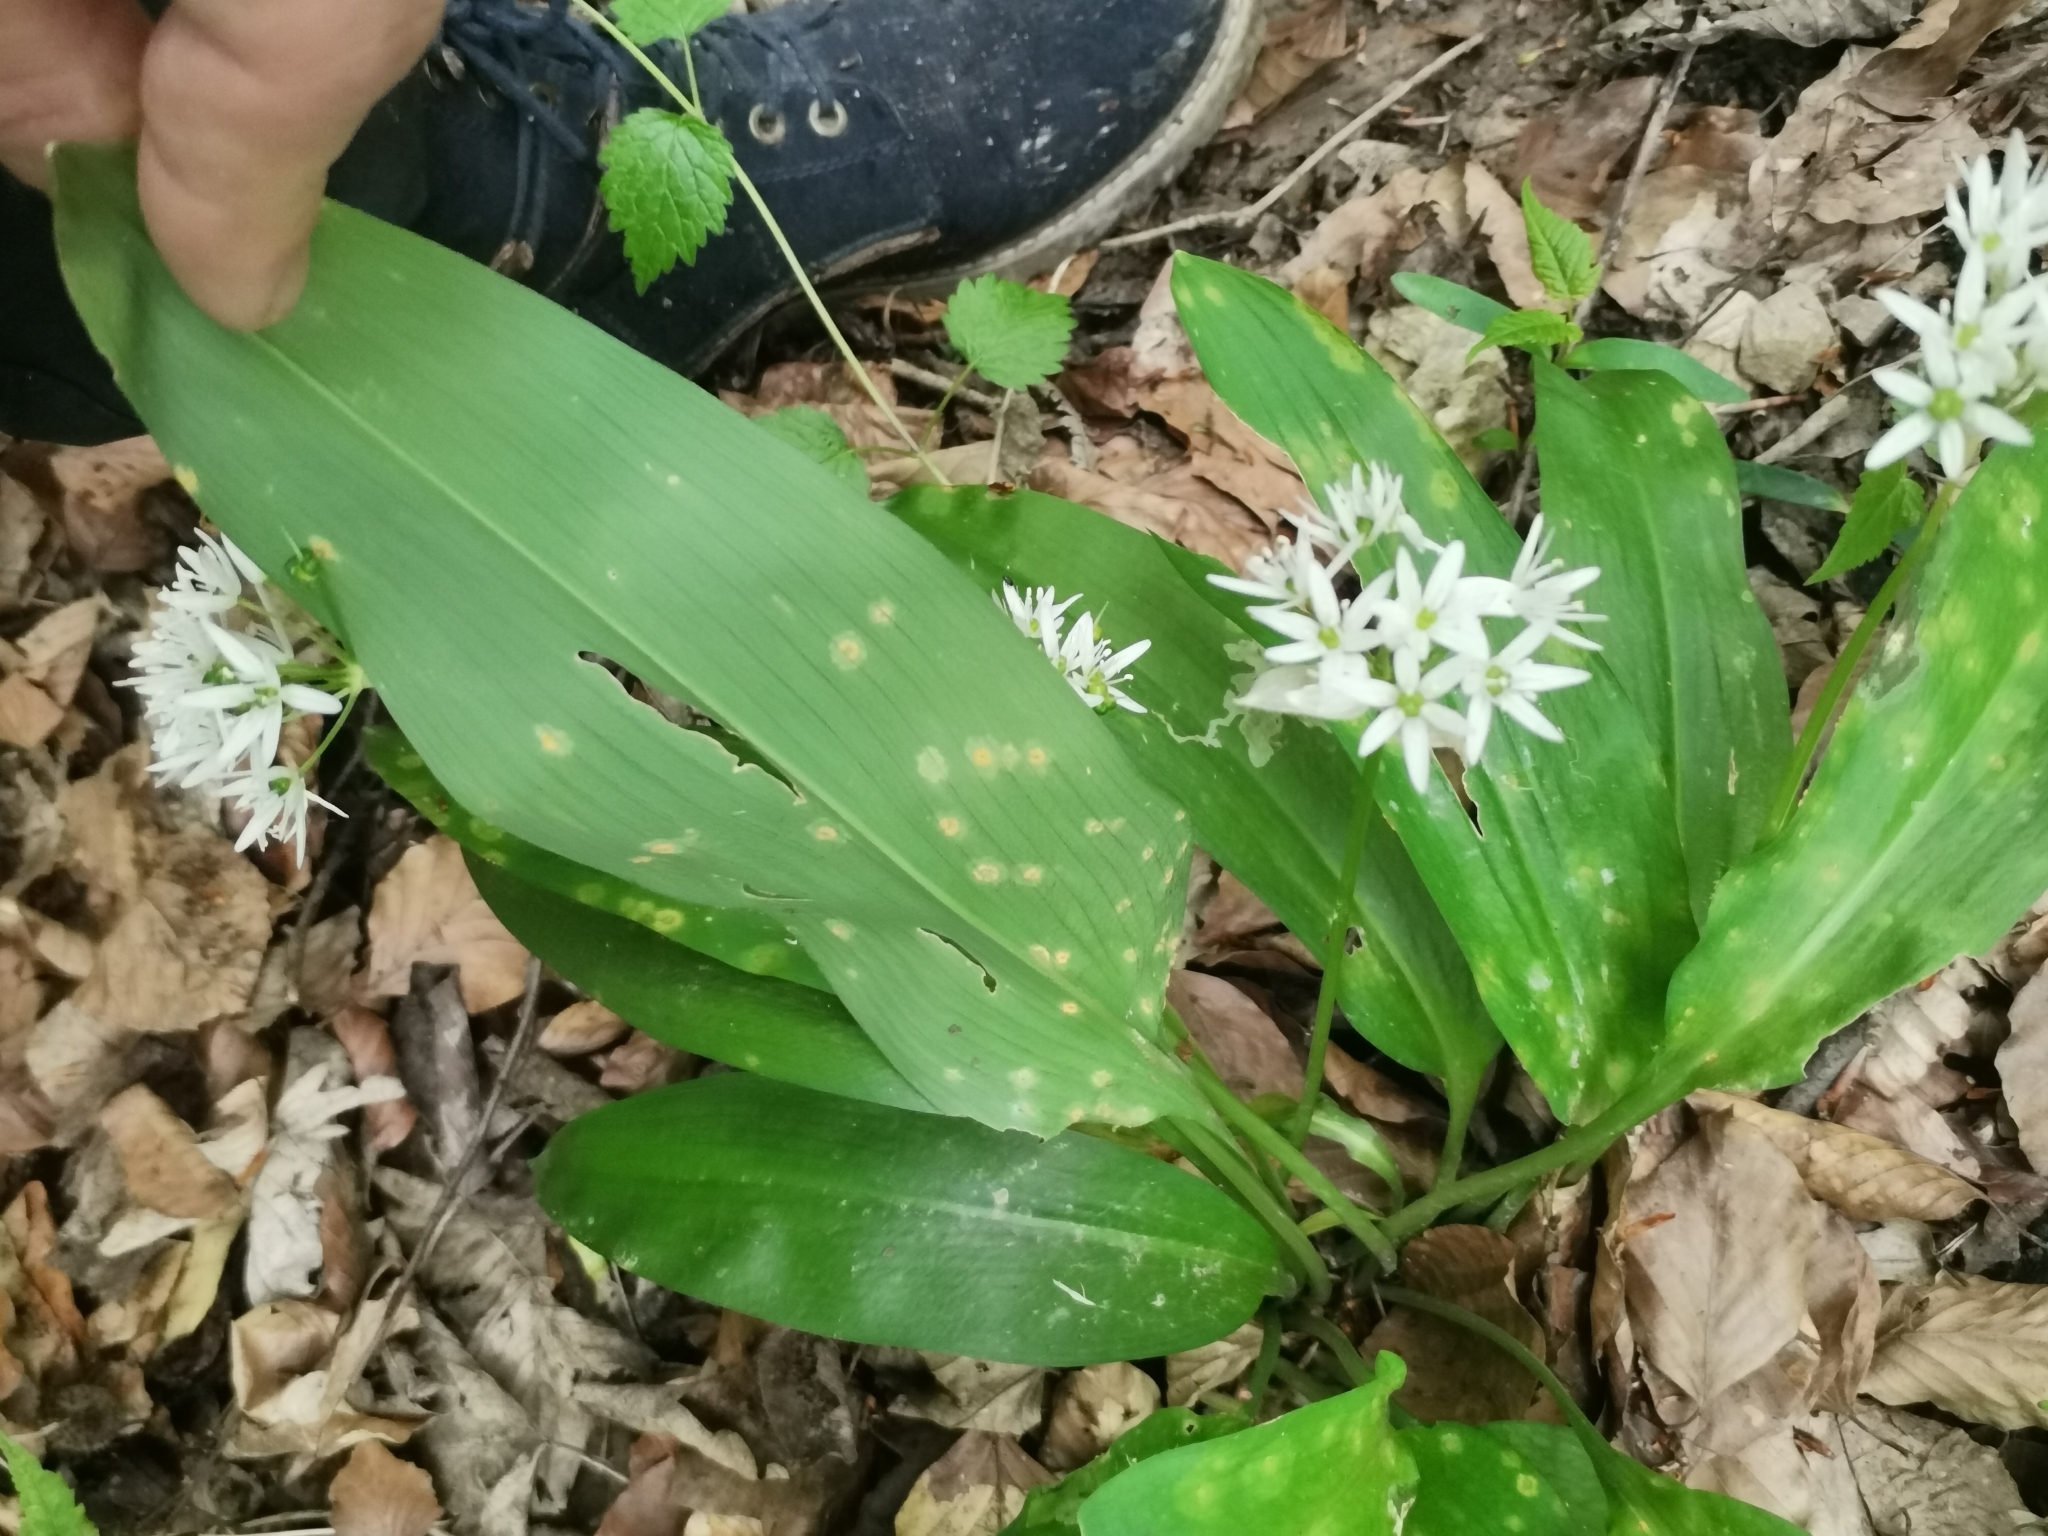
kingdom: Fungi
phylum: Basidiomycota
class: Pucciniomycetes
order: Pucciniales
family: Pucciniaceae
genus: Caeoma
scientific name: Caeoma allii-ursini
